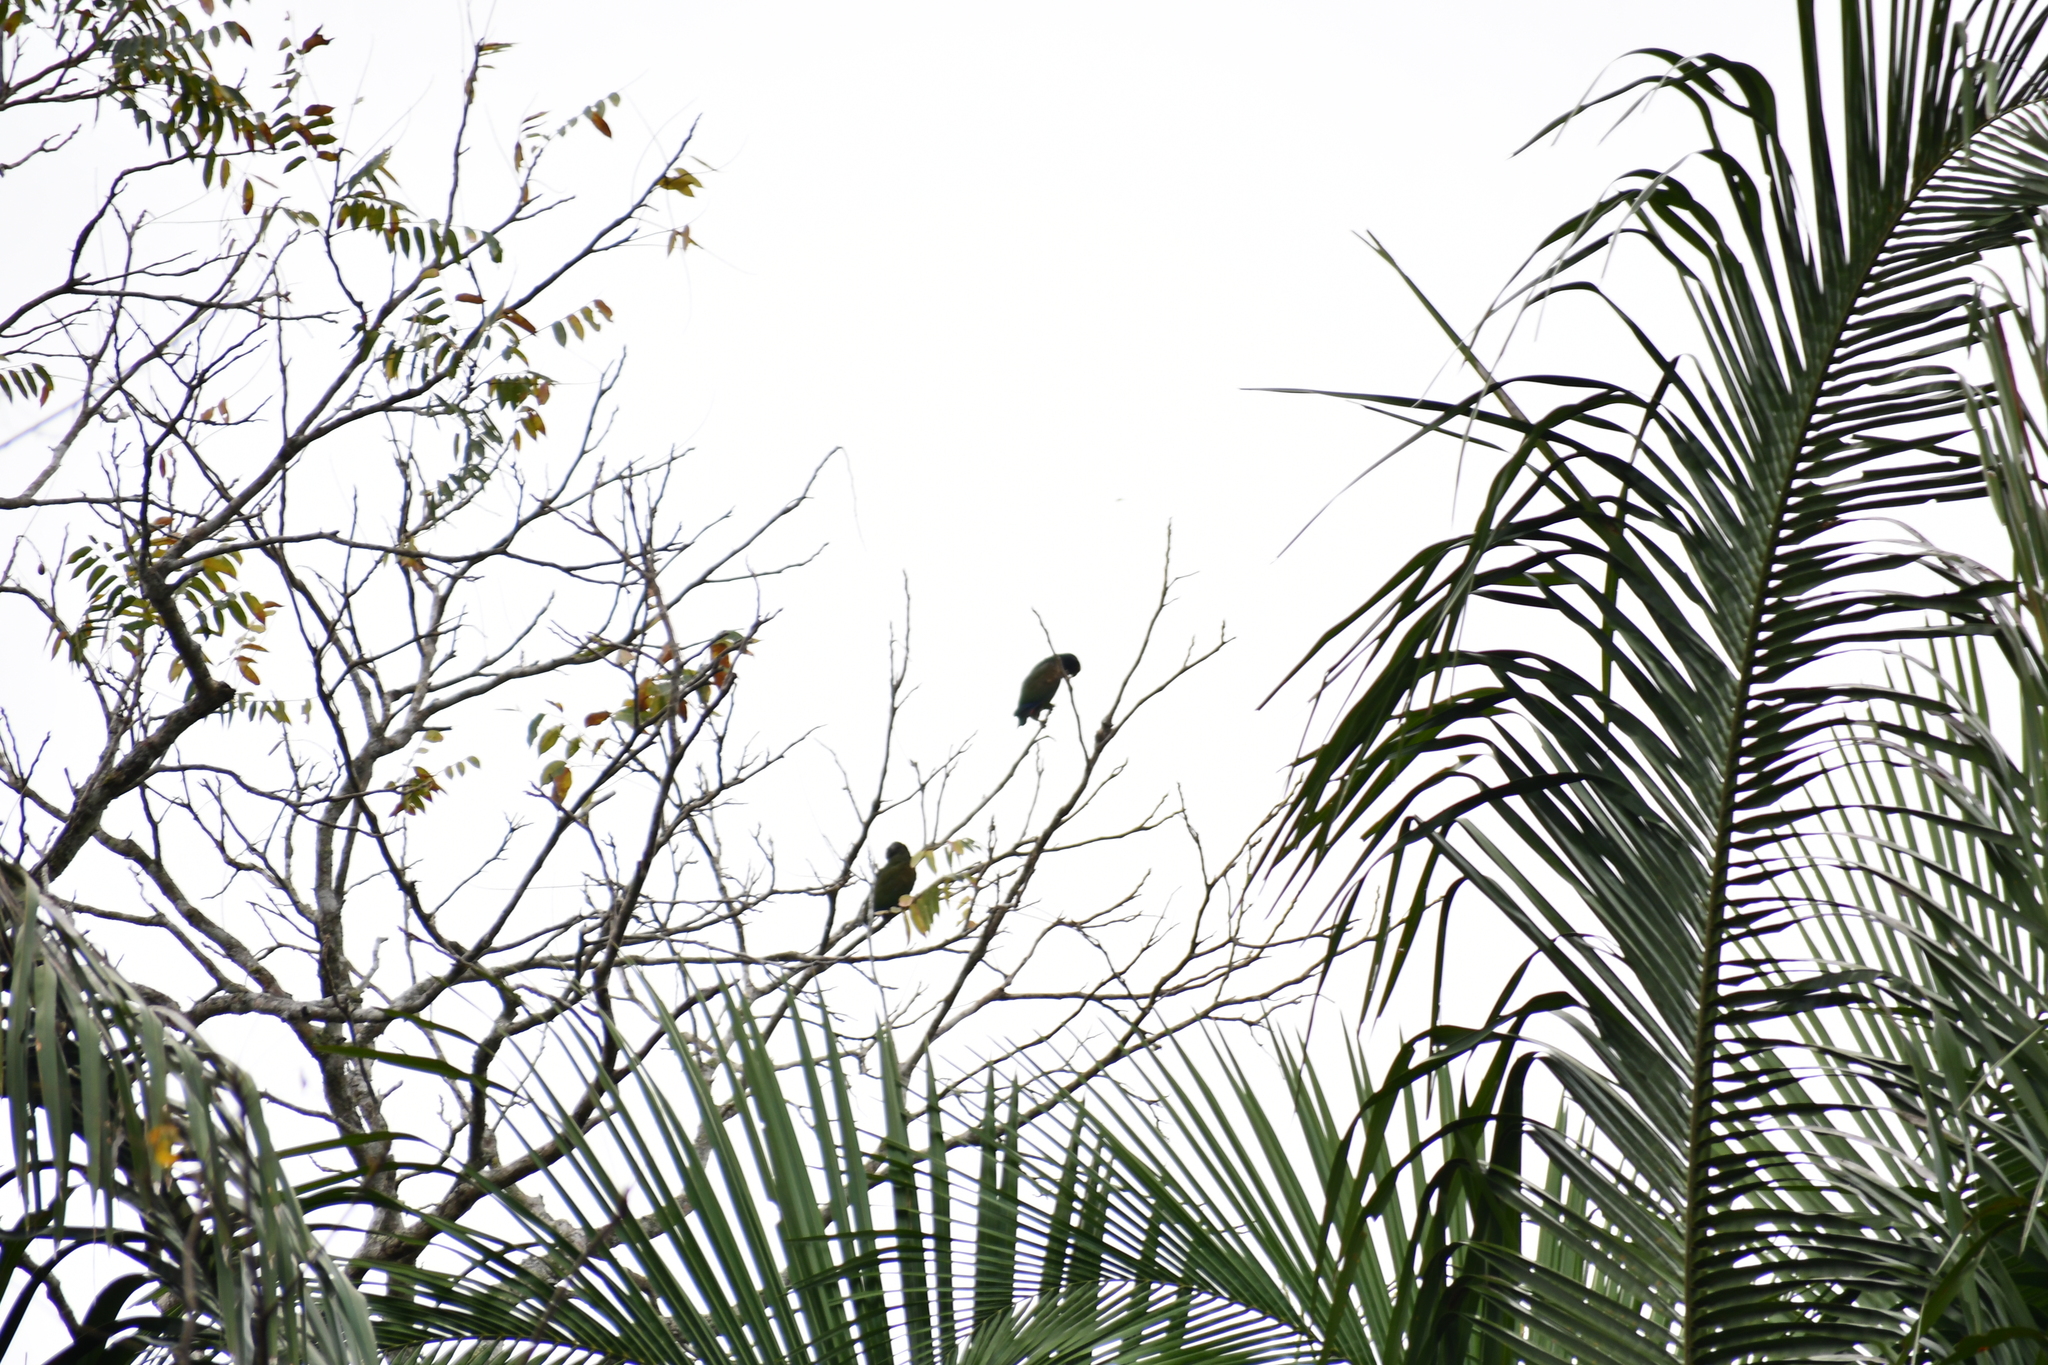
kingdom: Animalia
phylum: Chordata
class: Aves
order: Psittaciformes
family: Psittacidae
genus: Amazona
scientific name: Amazona albifrons
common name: White-fronted amazon
